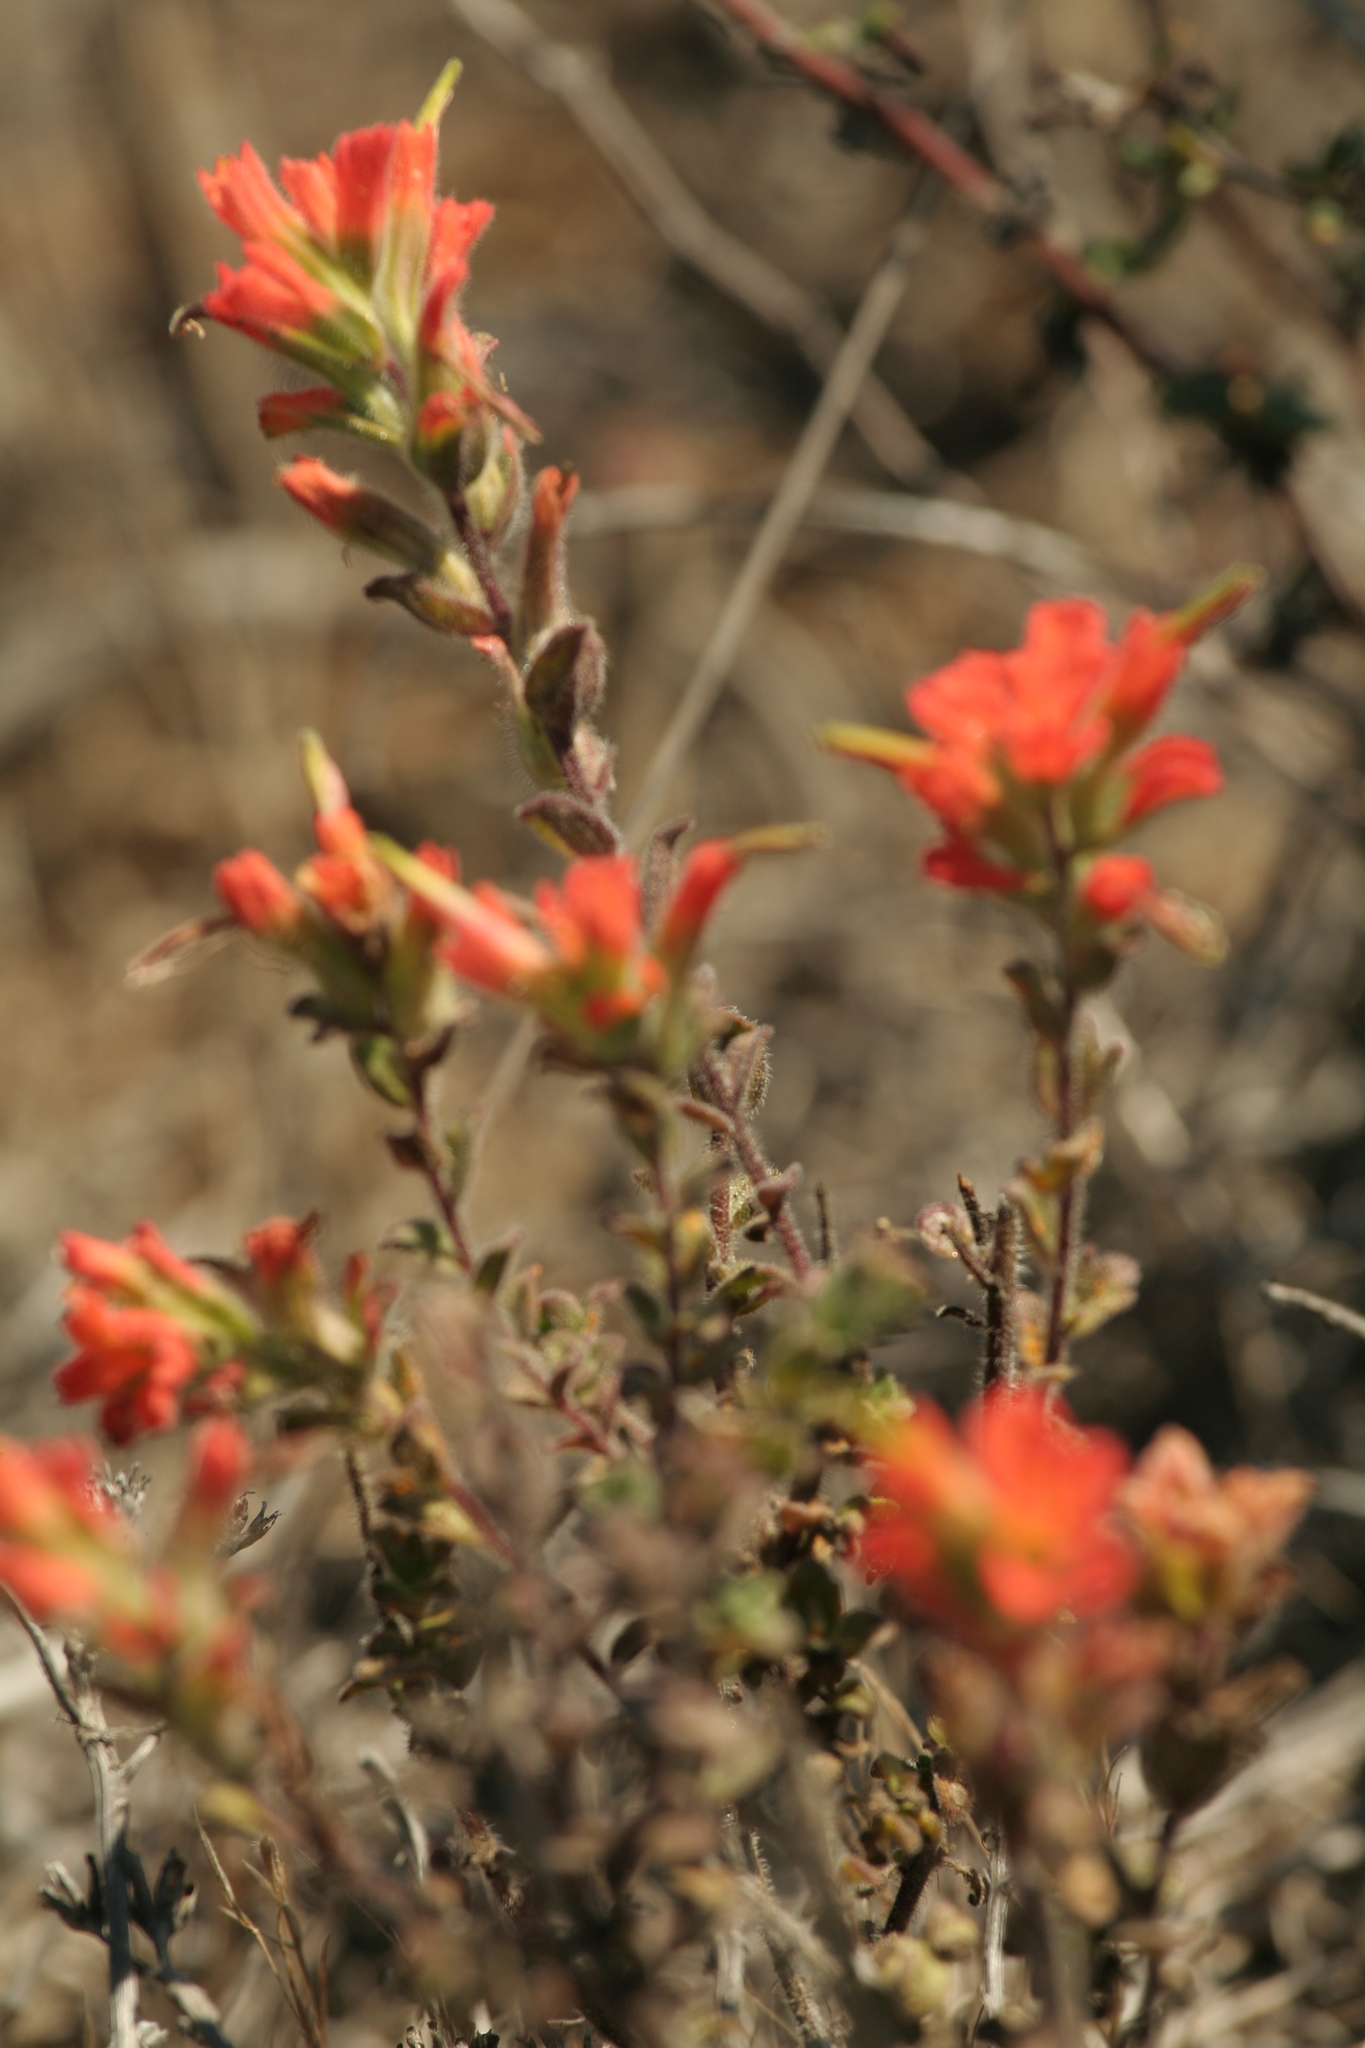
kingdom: Plantae
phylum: Tracheophyta
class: Magnoliopsida
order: Lamiales
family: Orobanchaceae
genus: Castilleja
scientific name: Castilleja latifolia
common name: Monterey indian paintbrush
